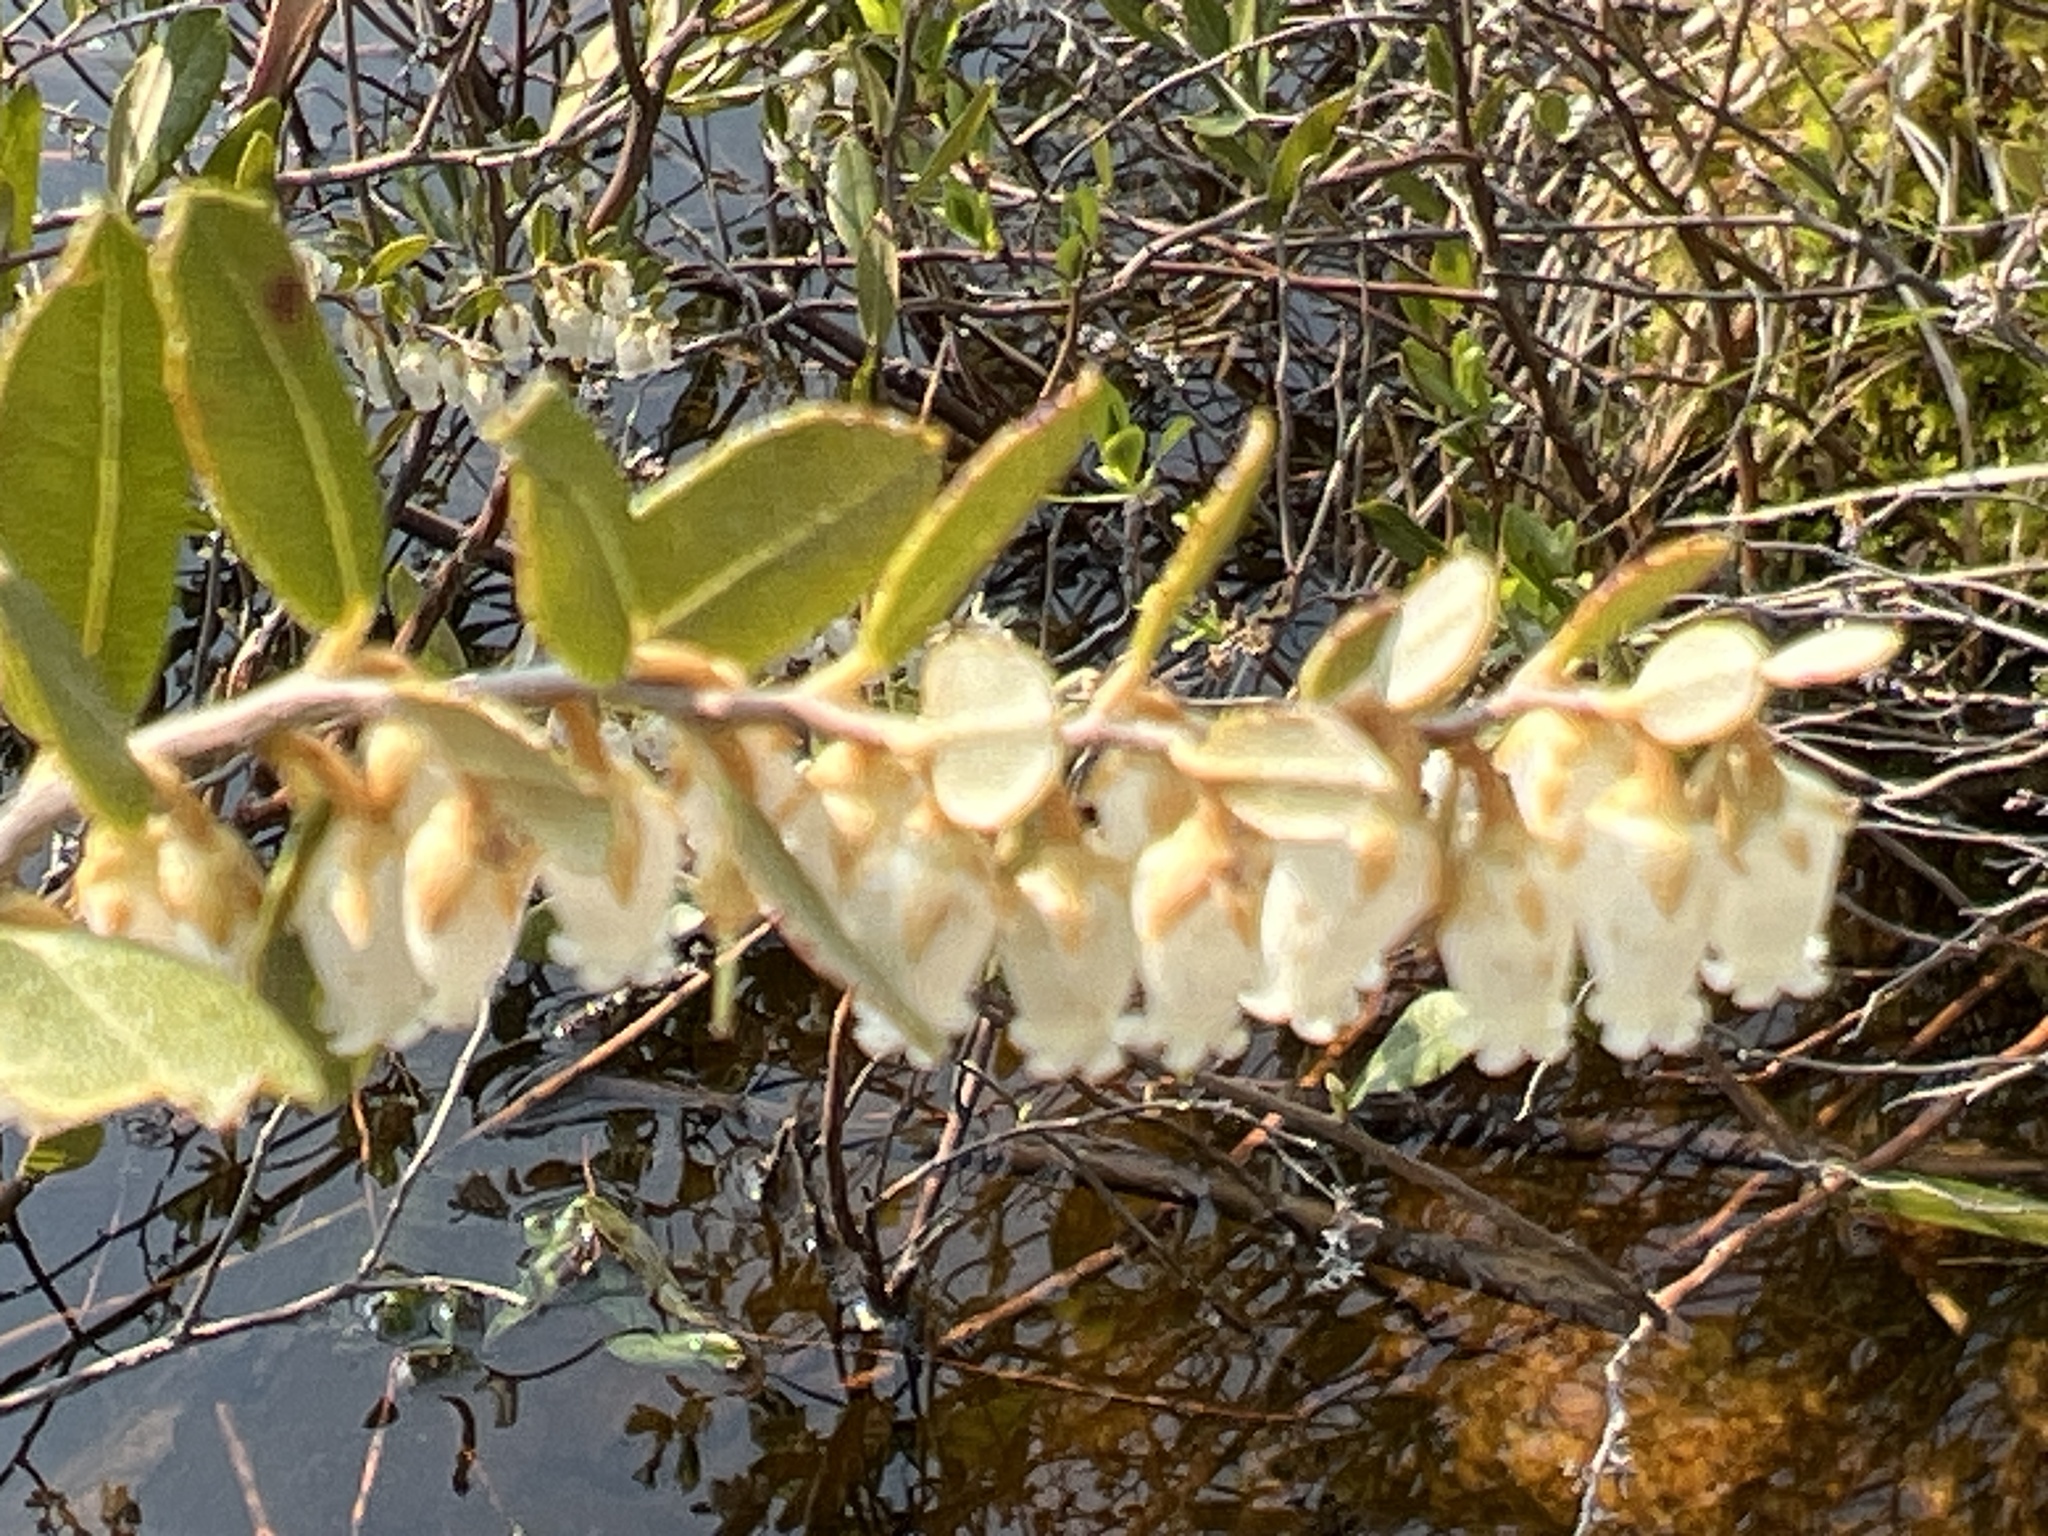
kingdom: Plantae
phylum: Tracheophyta
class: Magnoliopsida
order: Ericales
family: Ericaceae
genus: Chamaedaphne
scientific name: Chamaedaphne calyculata
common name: Leatherleaf
